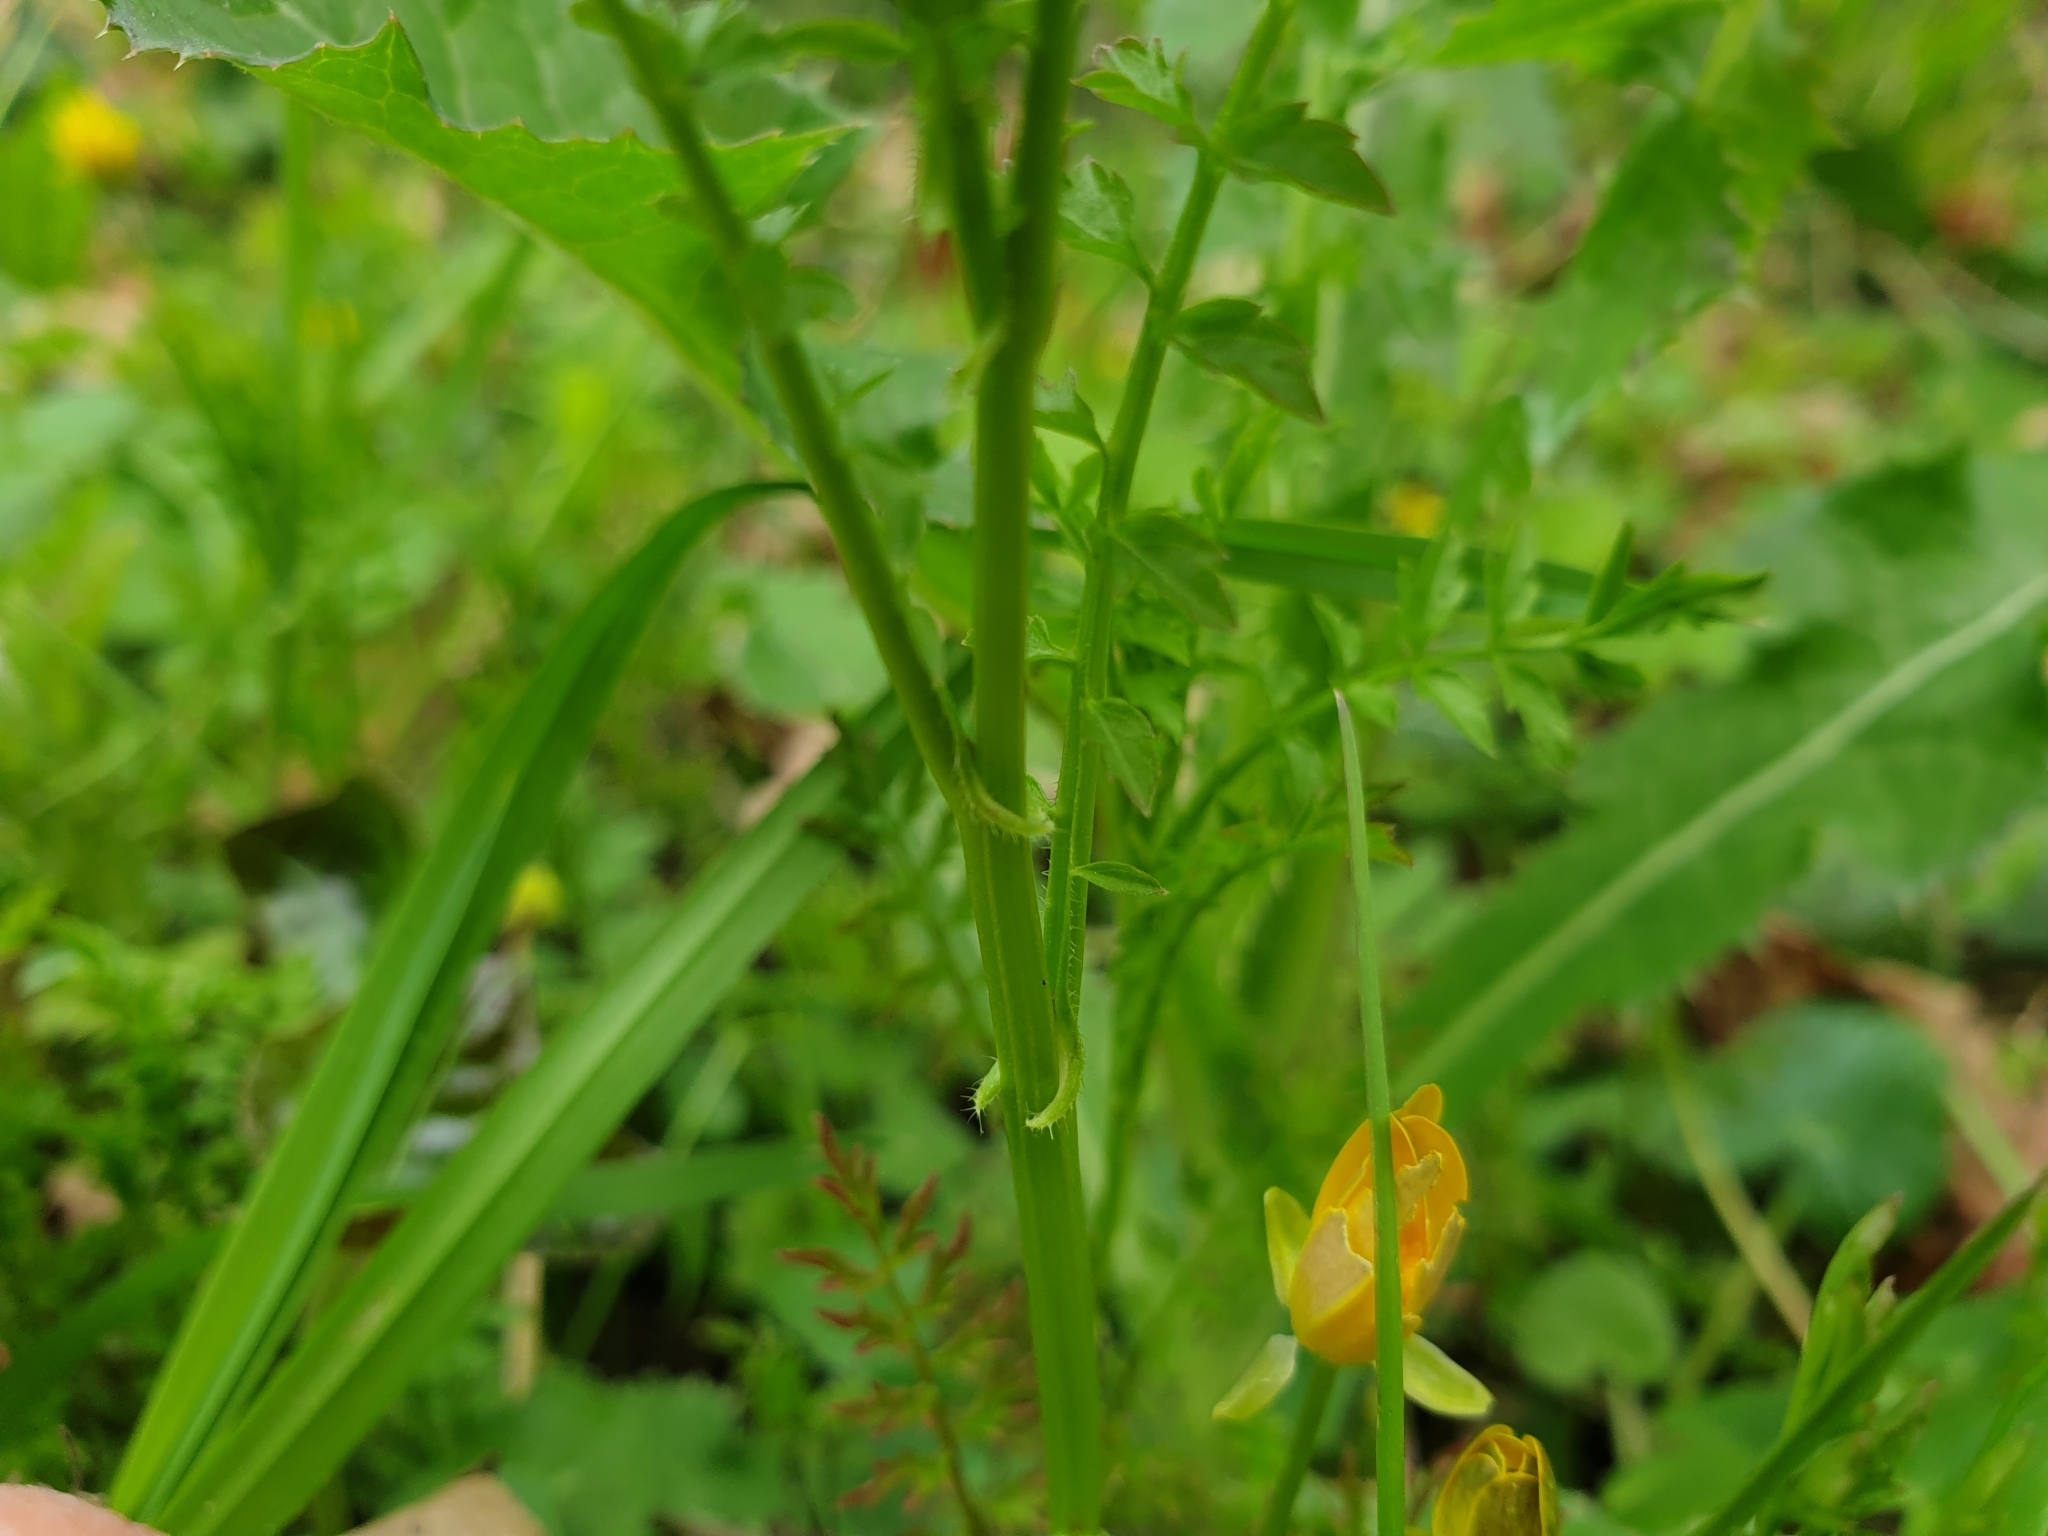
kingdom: Plantae
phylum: Tracheophyta
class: Magnoliopsida
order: Brassicales
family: Brassicaceae
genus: Cardamine
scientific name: Cardamine impatiens
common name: Narrow-leaved bitter-cress
